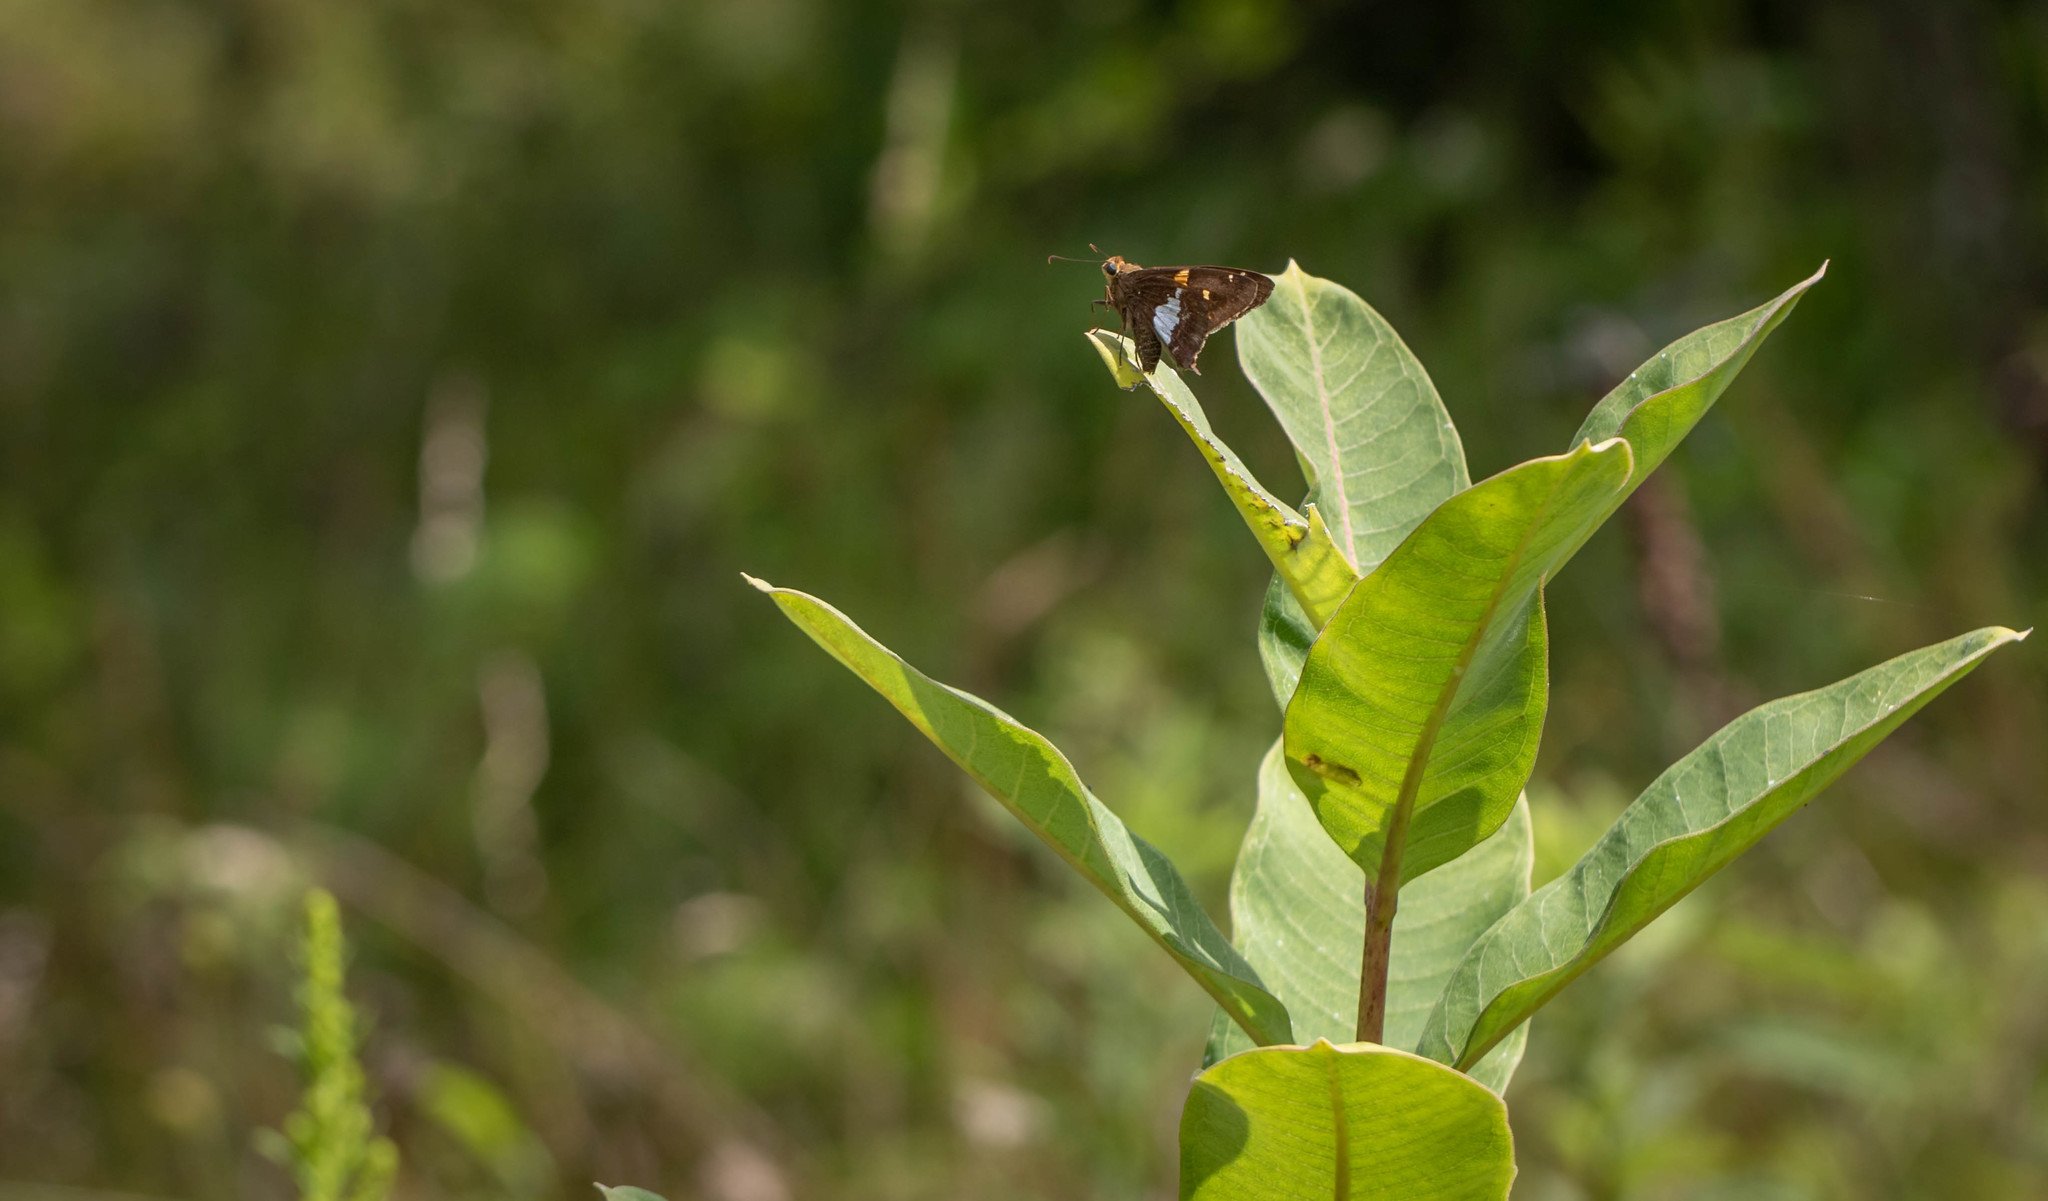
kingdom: Animalia
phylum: Arthropoda
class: Insecta
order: Lepidoptera
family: Hesperiidae
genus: Epargyreus
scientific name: Epargyreus clarus
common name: Silver-spotted skipper
